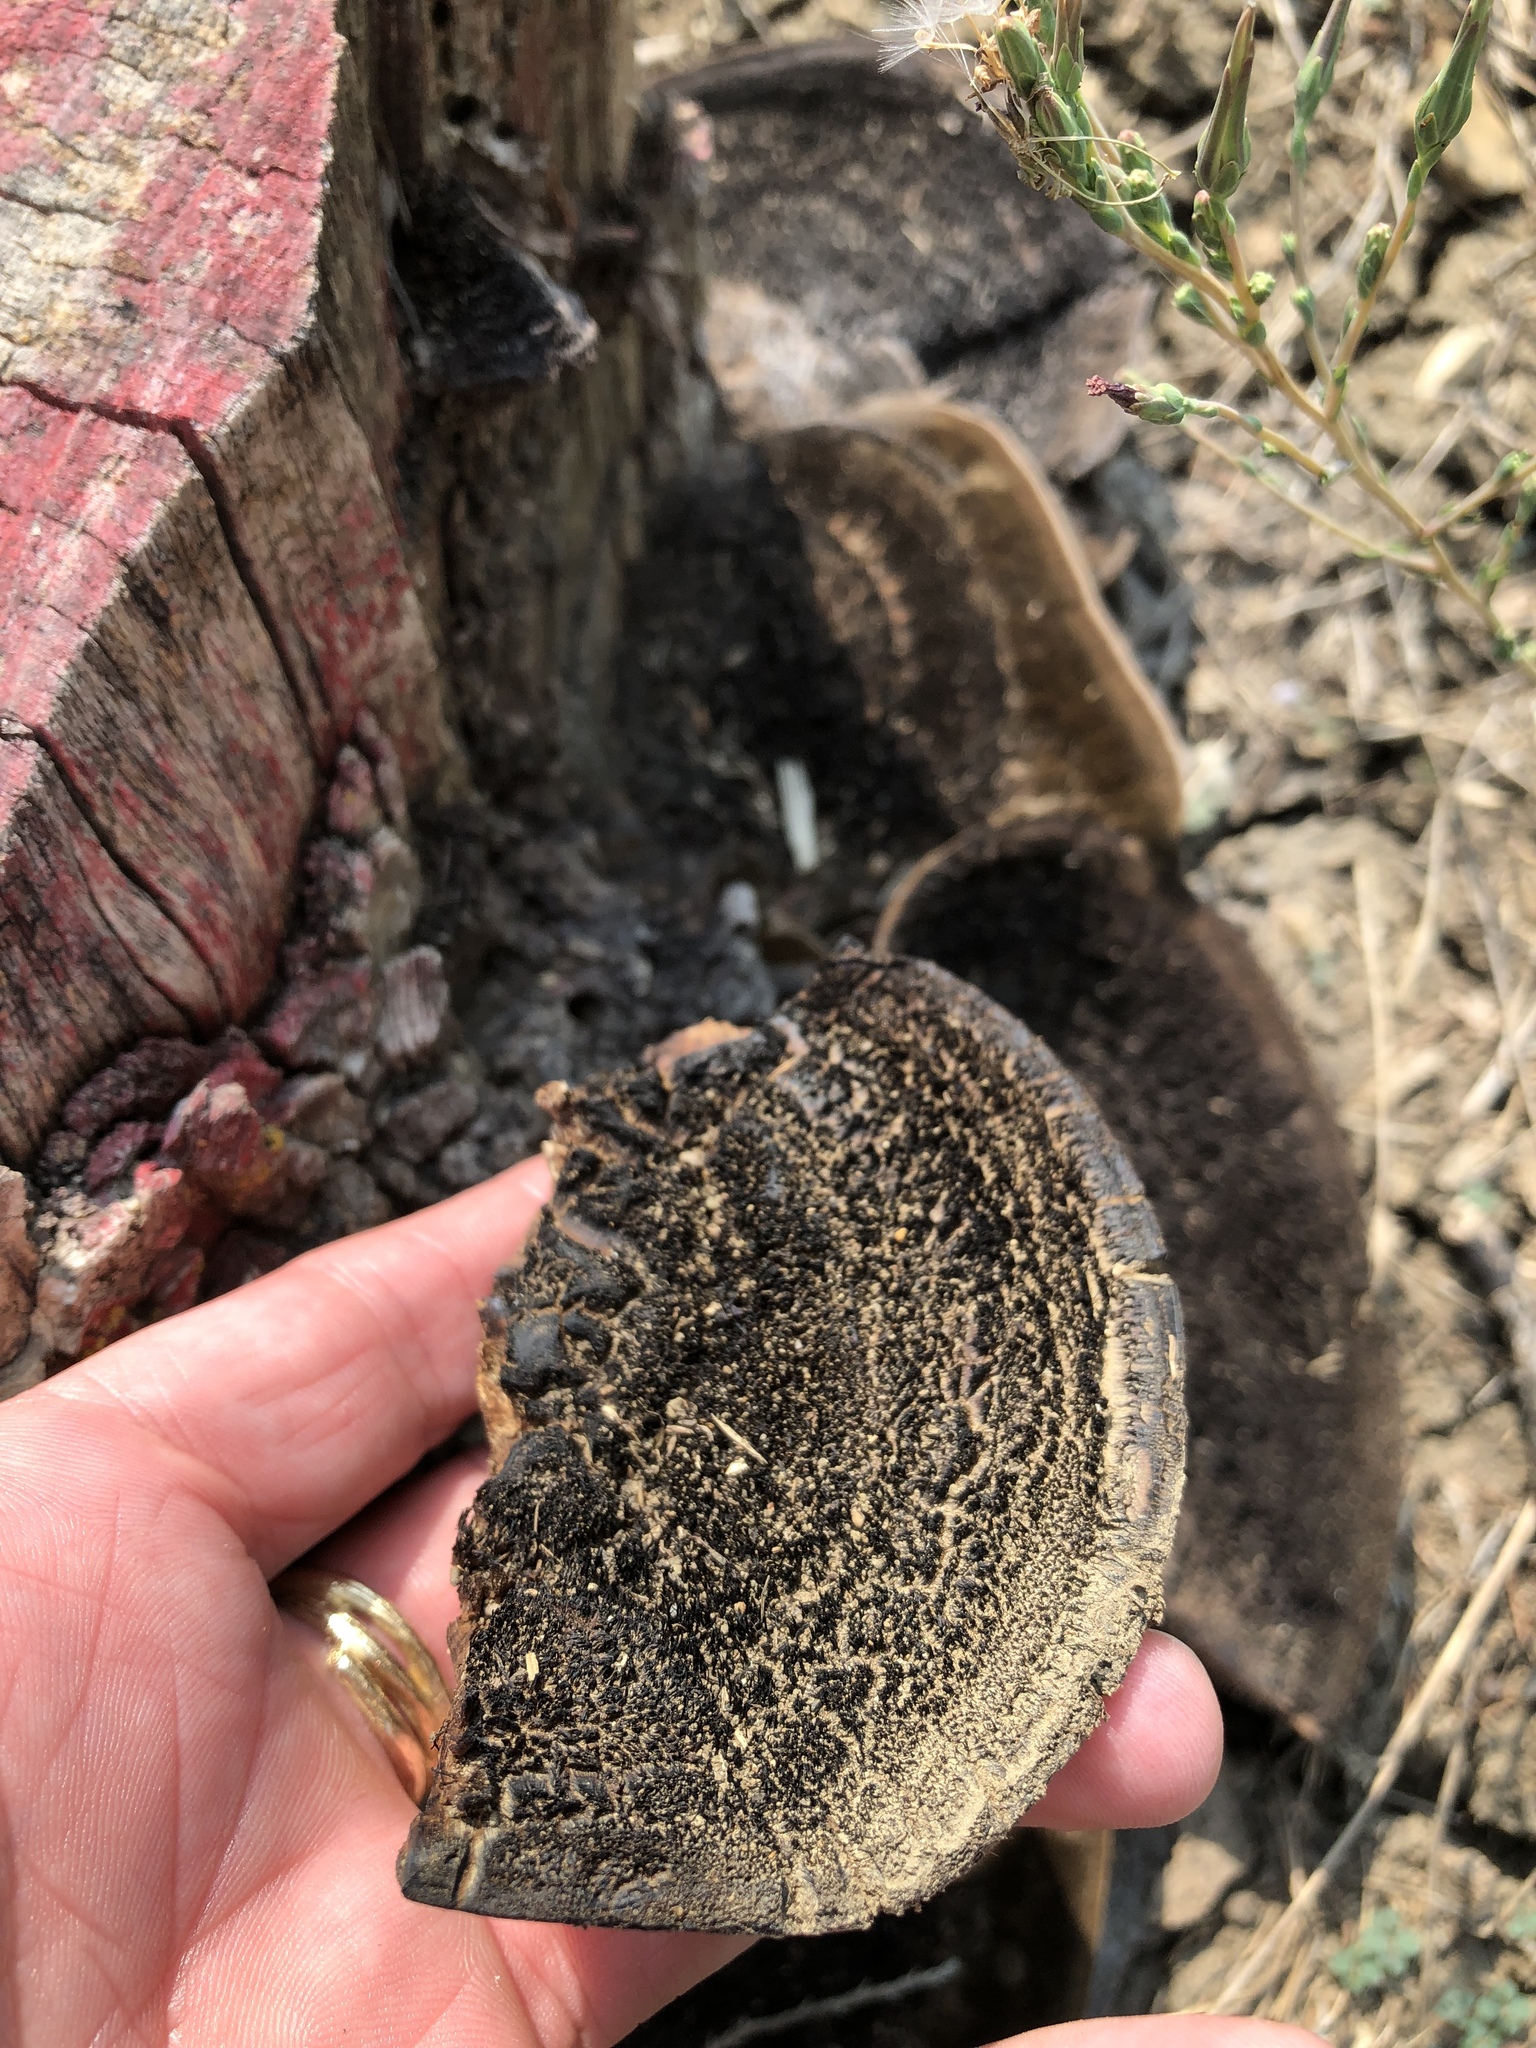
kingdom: Fungi
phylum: Basidiomycota
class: Agaricomycetes
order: Polyporales
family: Cerrenaceae
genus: Cerrena
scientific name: Cerrena hydnoides
